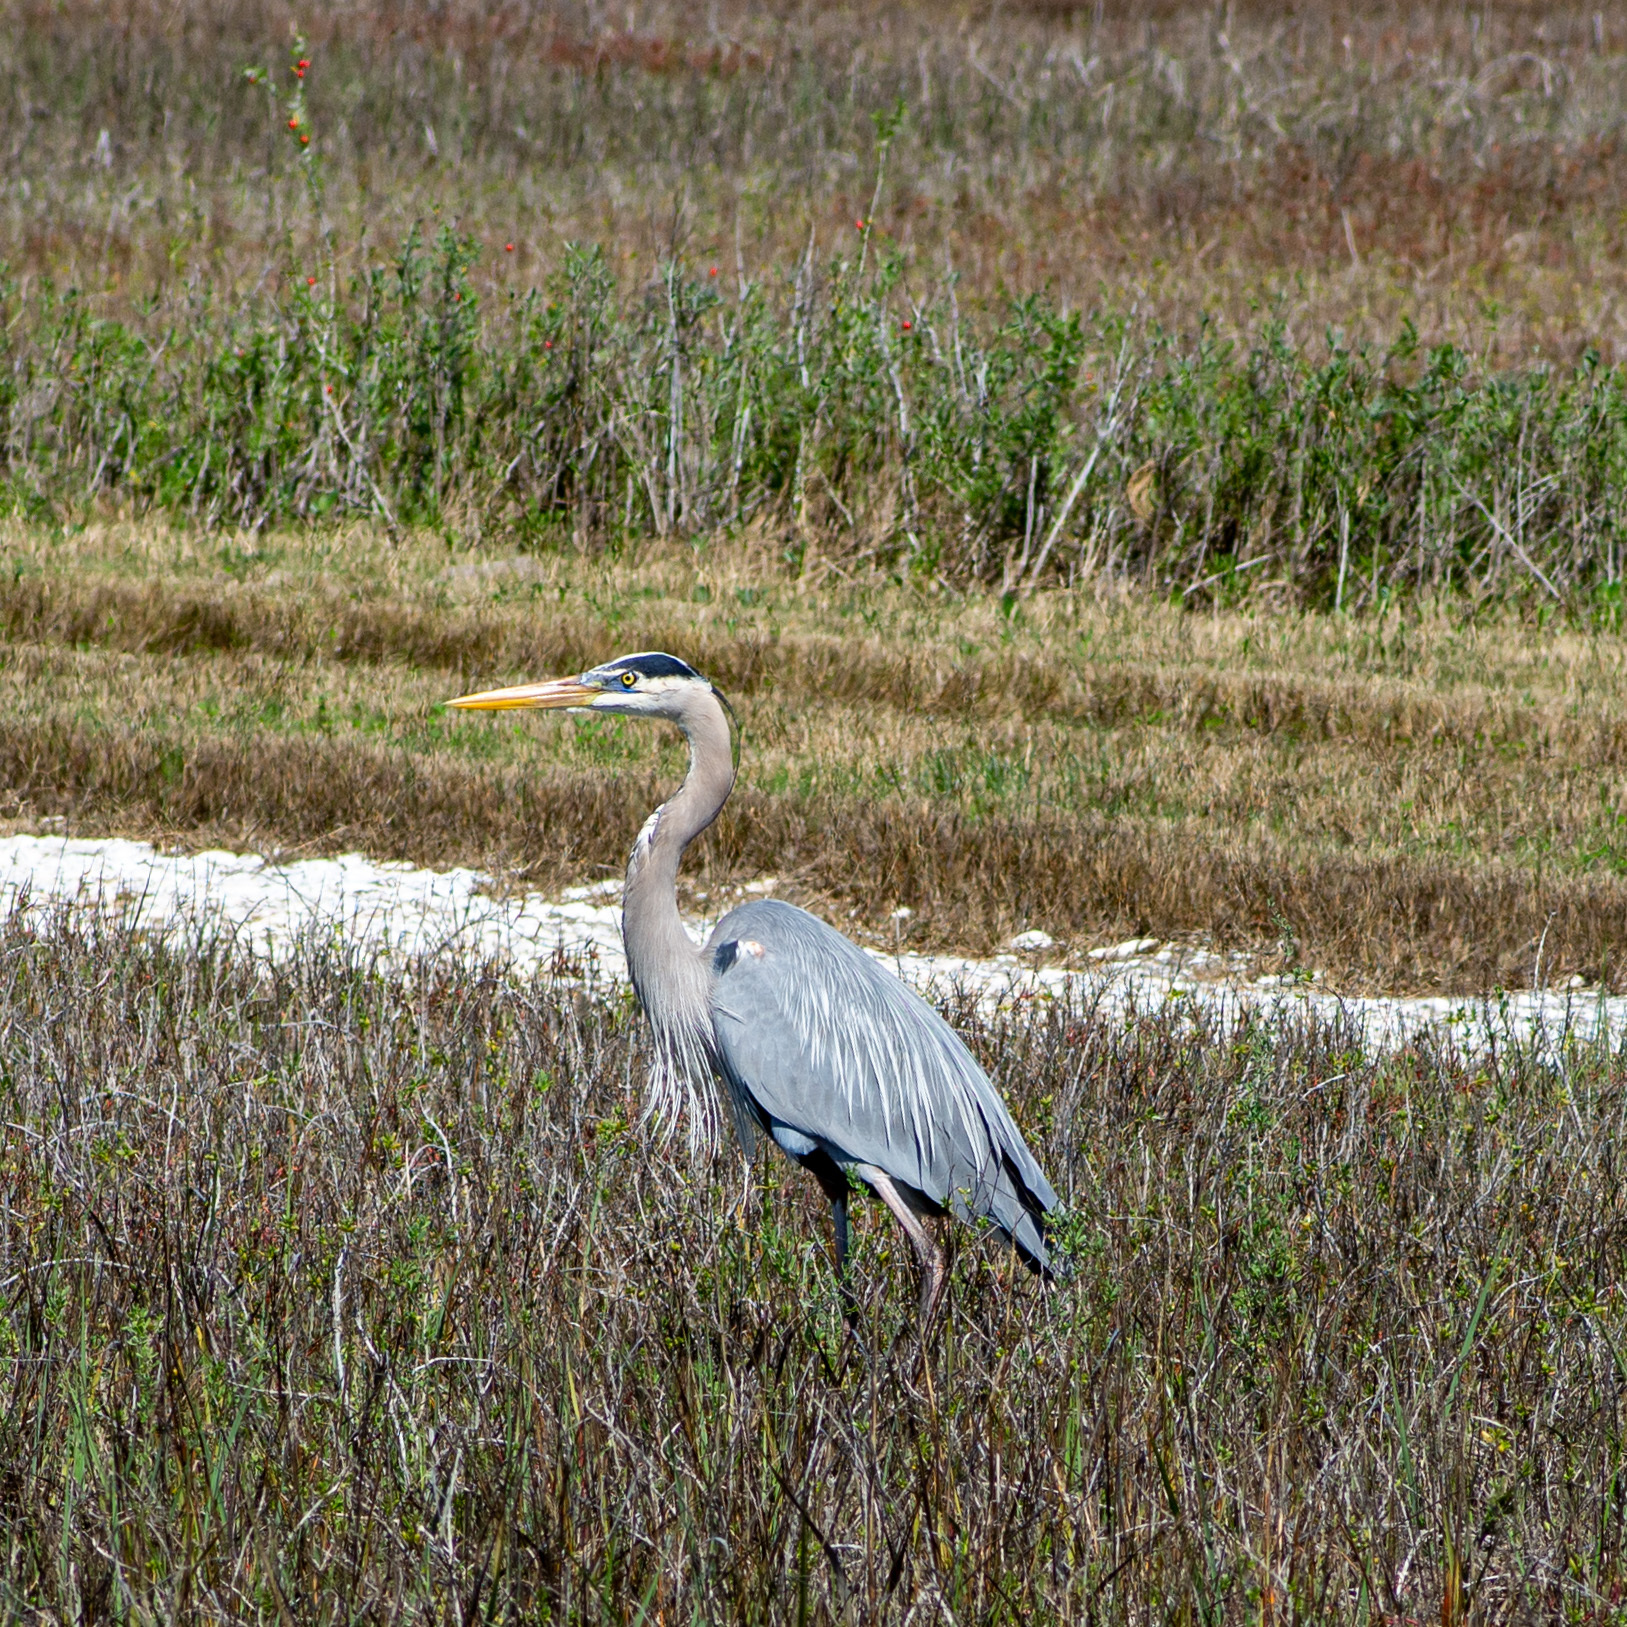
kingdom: Animalia
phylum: Chordata
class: Aves
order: Pelecaniformes
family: Ardeidae
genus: Ardea
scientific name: Ardea herodias
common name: Great blue heron
